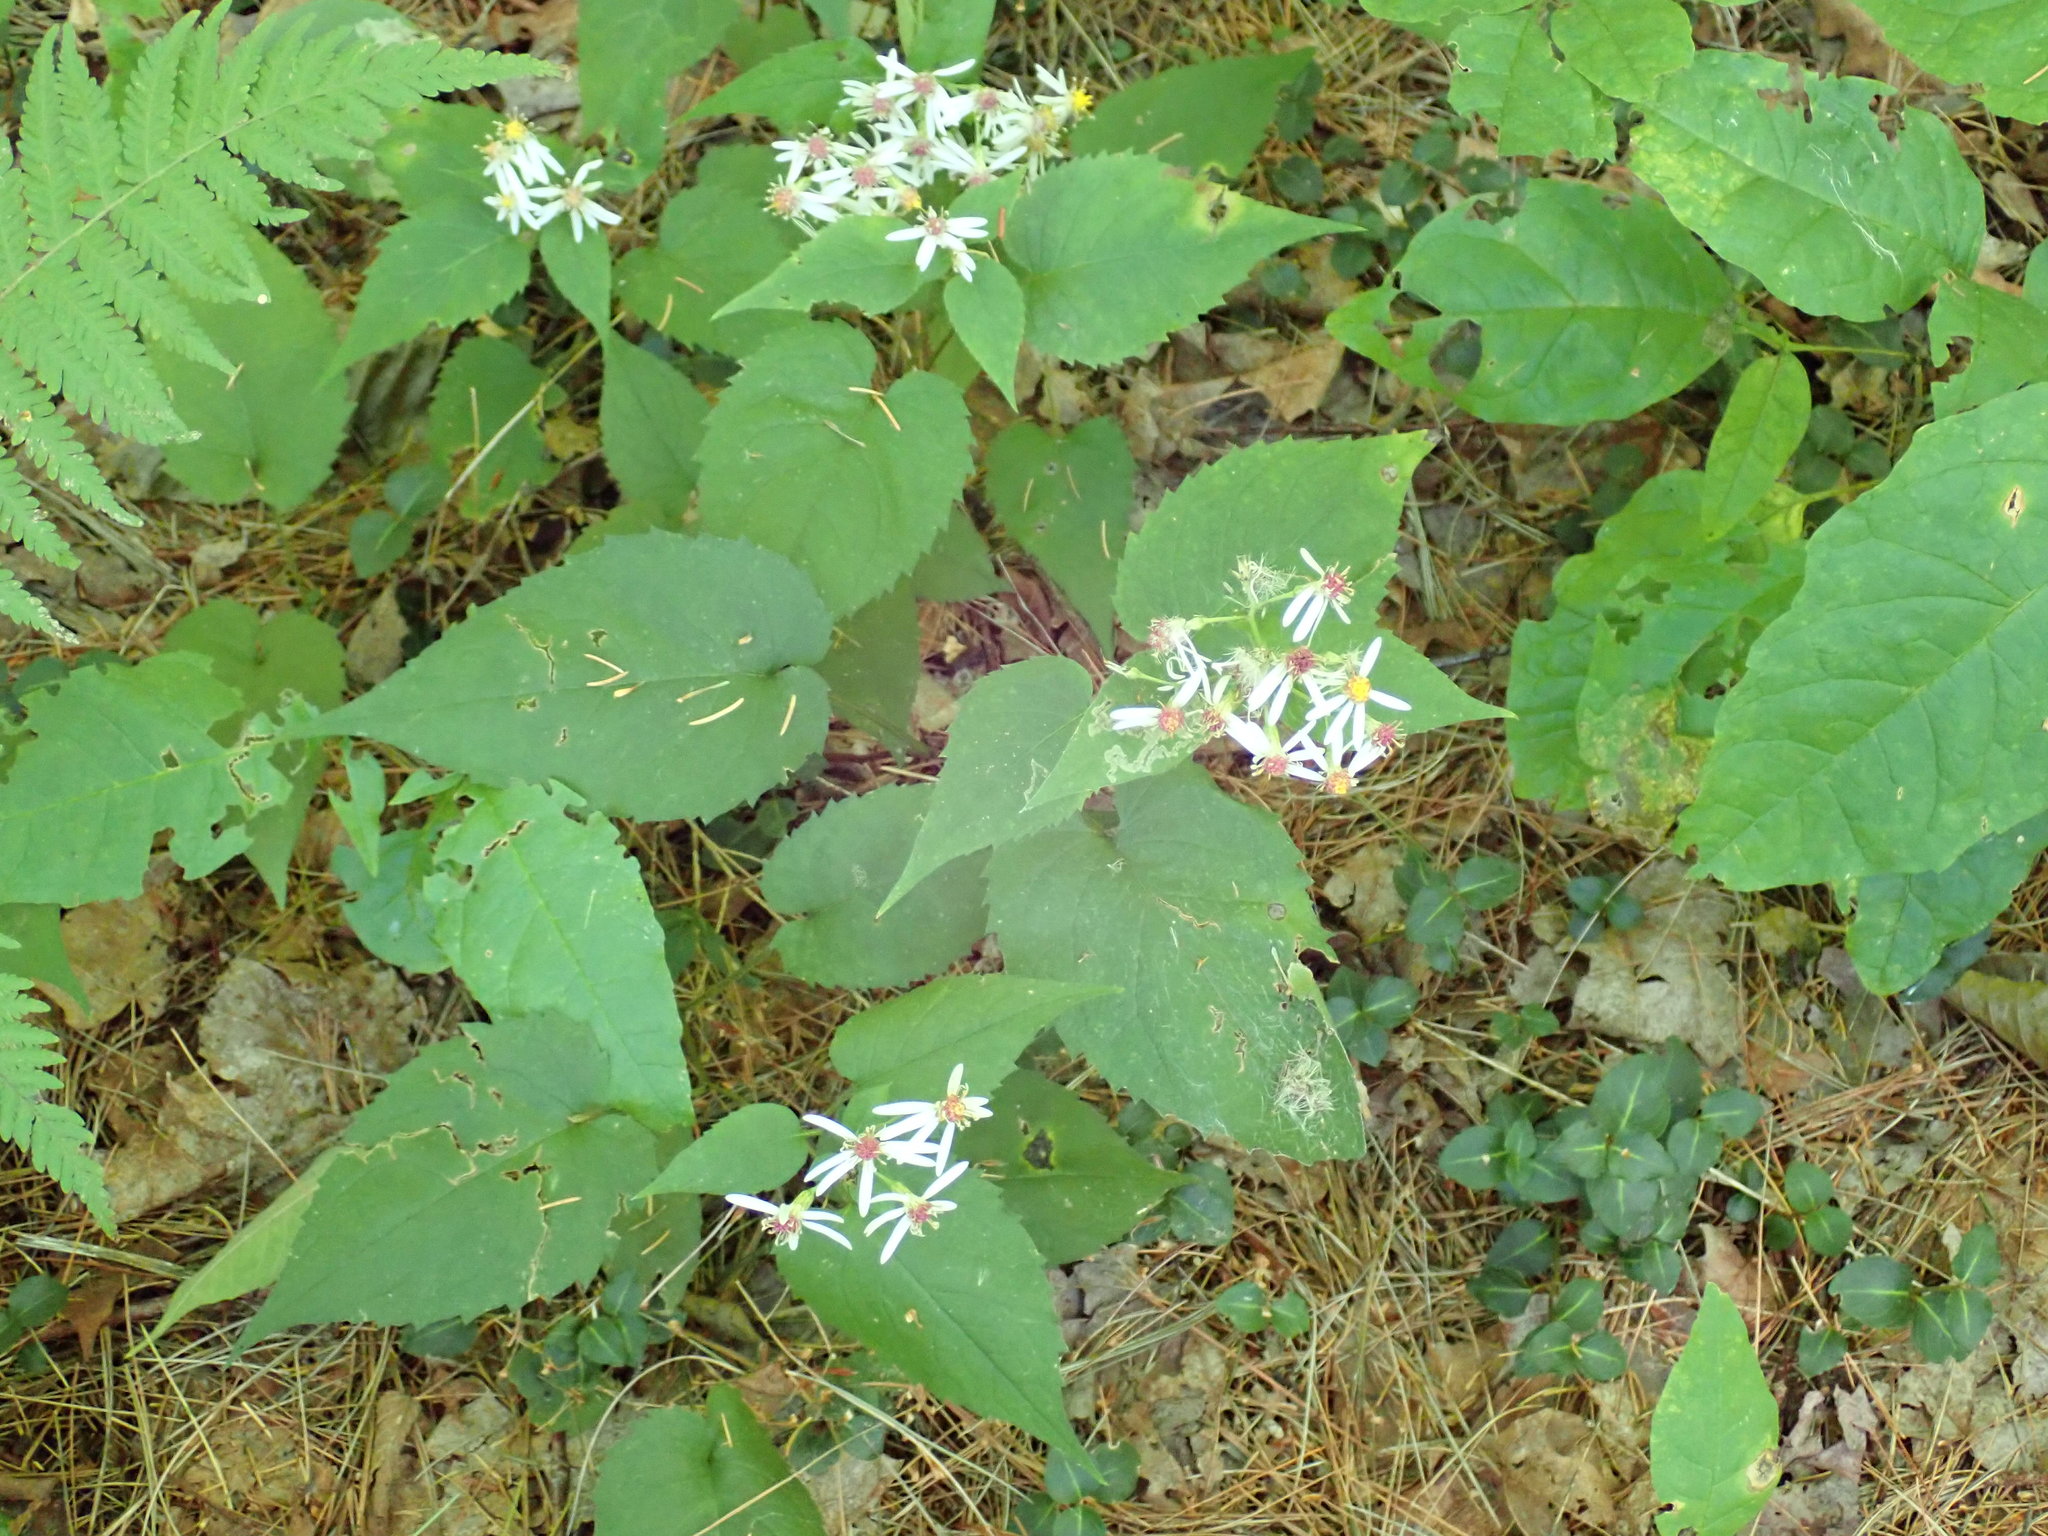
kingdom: Plantae
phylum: Tracheophyta
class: Magnoliopsida
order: Asterales
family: Asteraceae
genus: Eurybia
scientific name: Eurybia divaricata
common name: White wood aster
